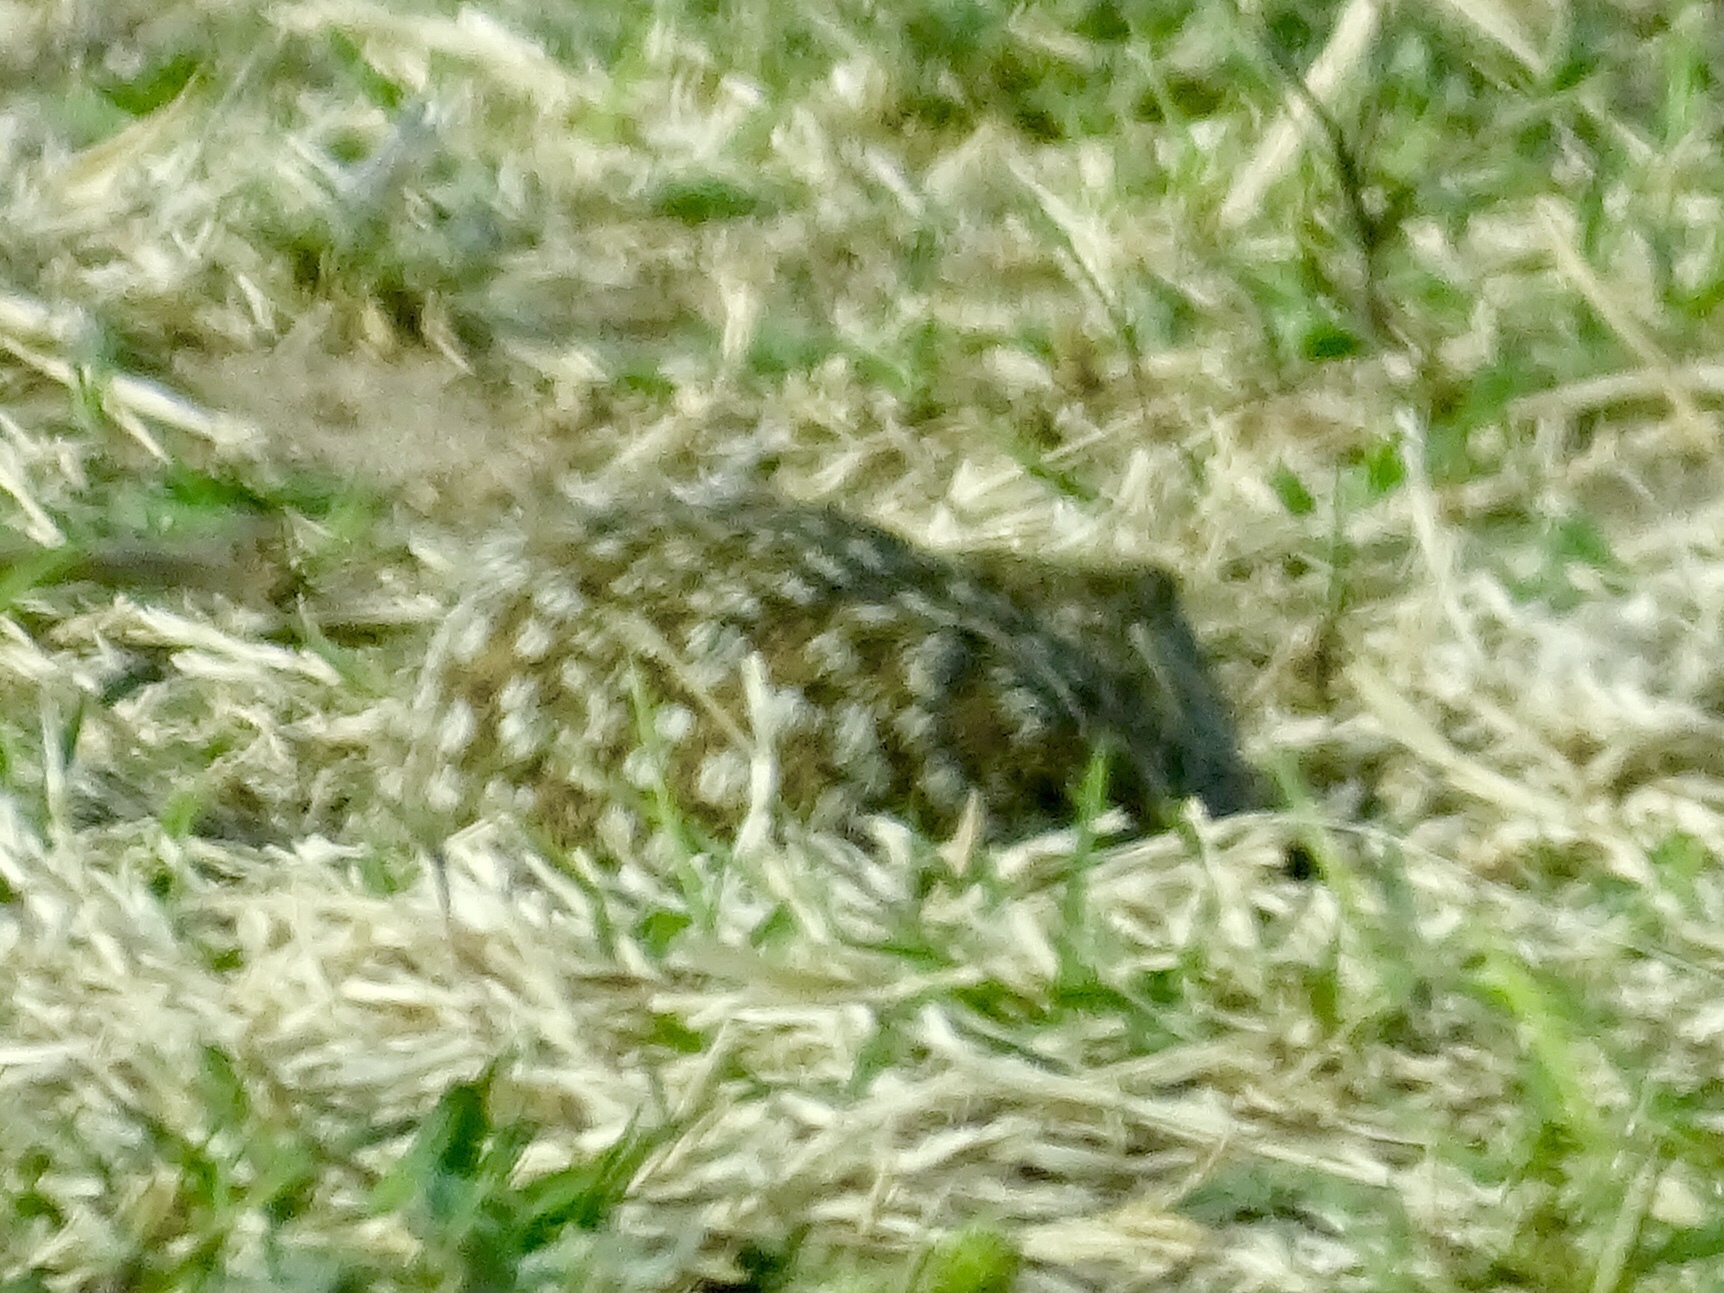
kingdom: Animalia
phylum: Chordata
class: Mammalia
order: Rodentia
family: Sciuridae
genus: Ictidomys
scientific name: Ictidomys parvidens
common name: Rio grande ground squirrel
